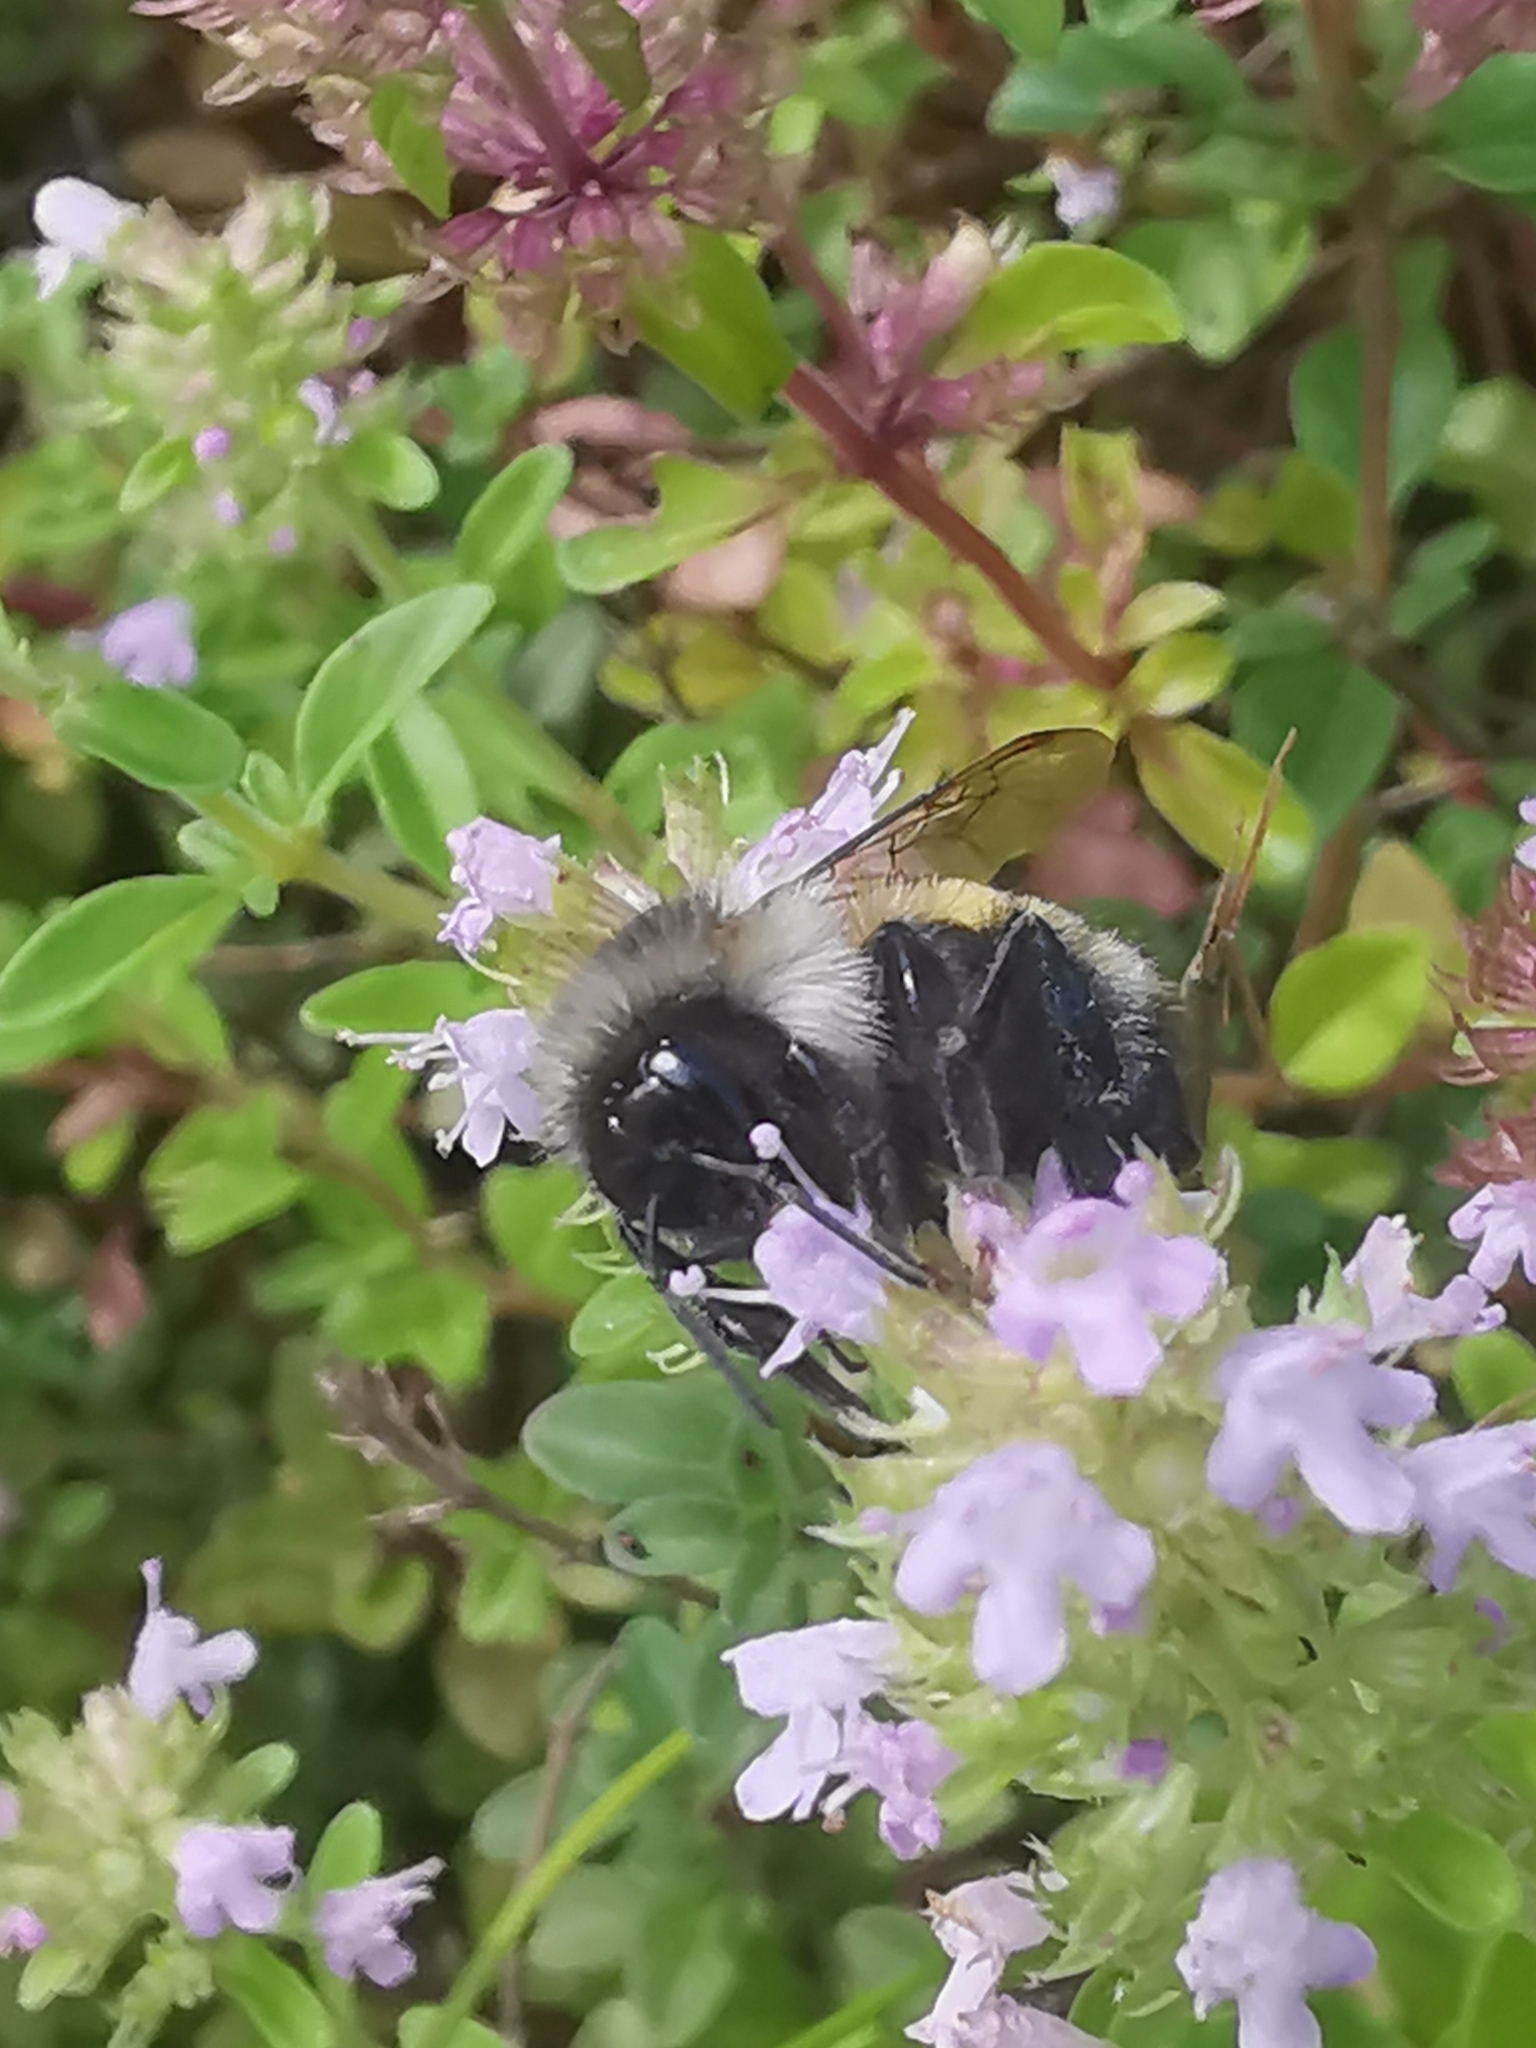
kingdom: Animalia
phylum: Arthropoda
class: Insecta
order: Hymenoptera
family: Apidae
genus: Bombus
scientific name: Bombus ternarius
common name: Tri-colored bumble bee
